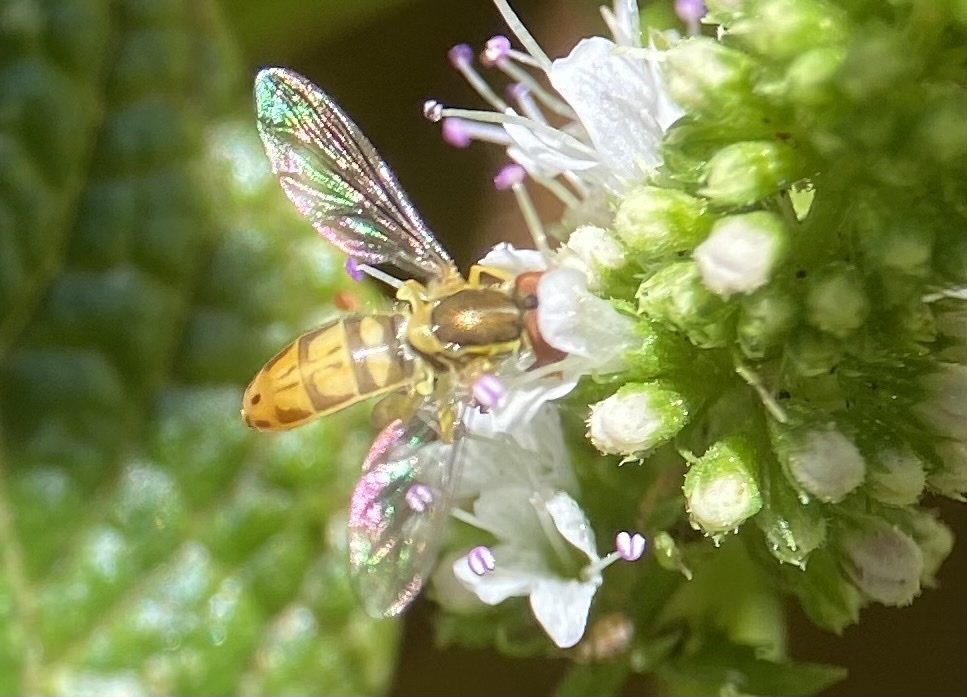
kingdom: Animalia
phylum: Arthropoda
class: Insecta
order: Diptera
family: Syrphidae
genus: Toxomerus
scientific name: Toxomerus marginatus
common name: Syrphid fly
